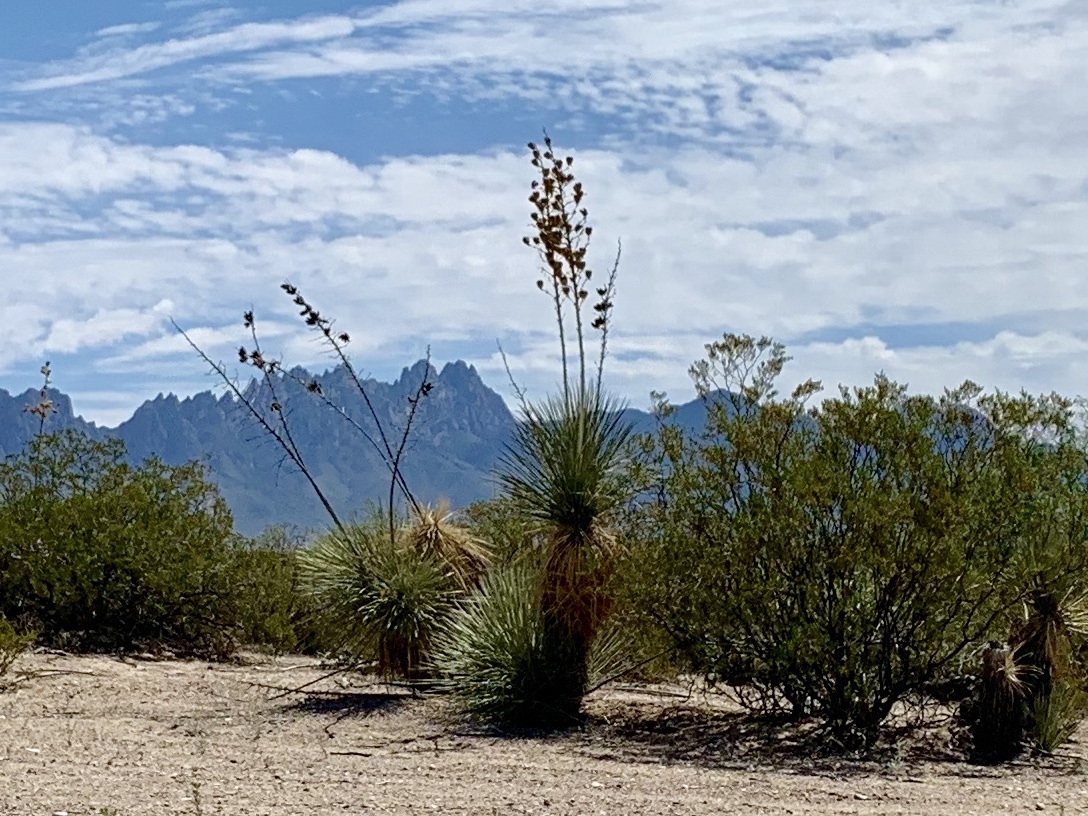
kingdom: Plantae
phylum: Tracheophyta
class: Liliopsida
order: Asparagales
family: Asparagaceae
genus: Yucca
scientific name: Yucca elata
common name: Palmella
